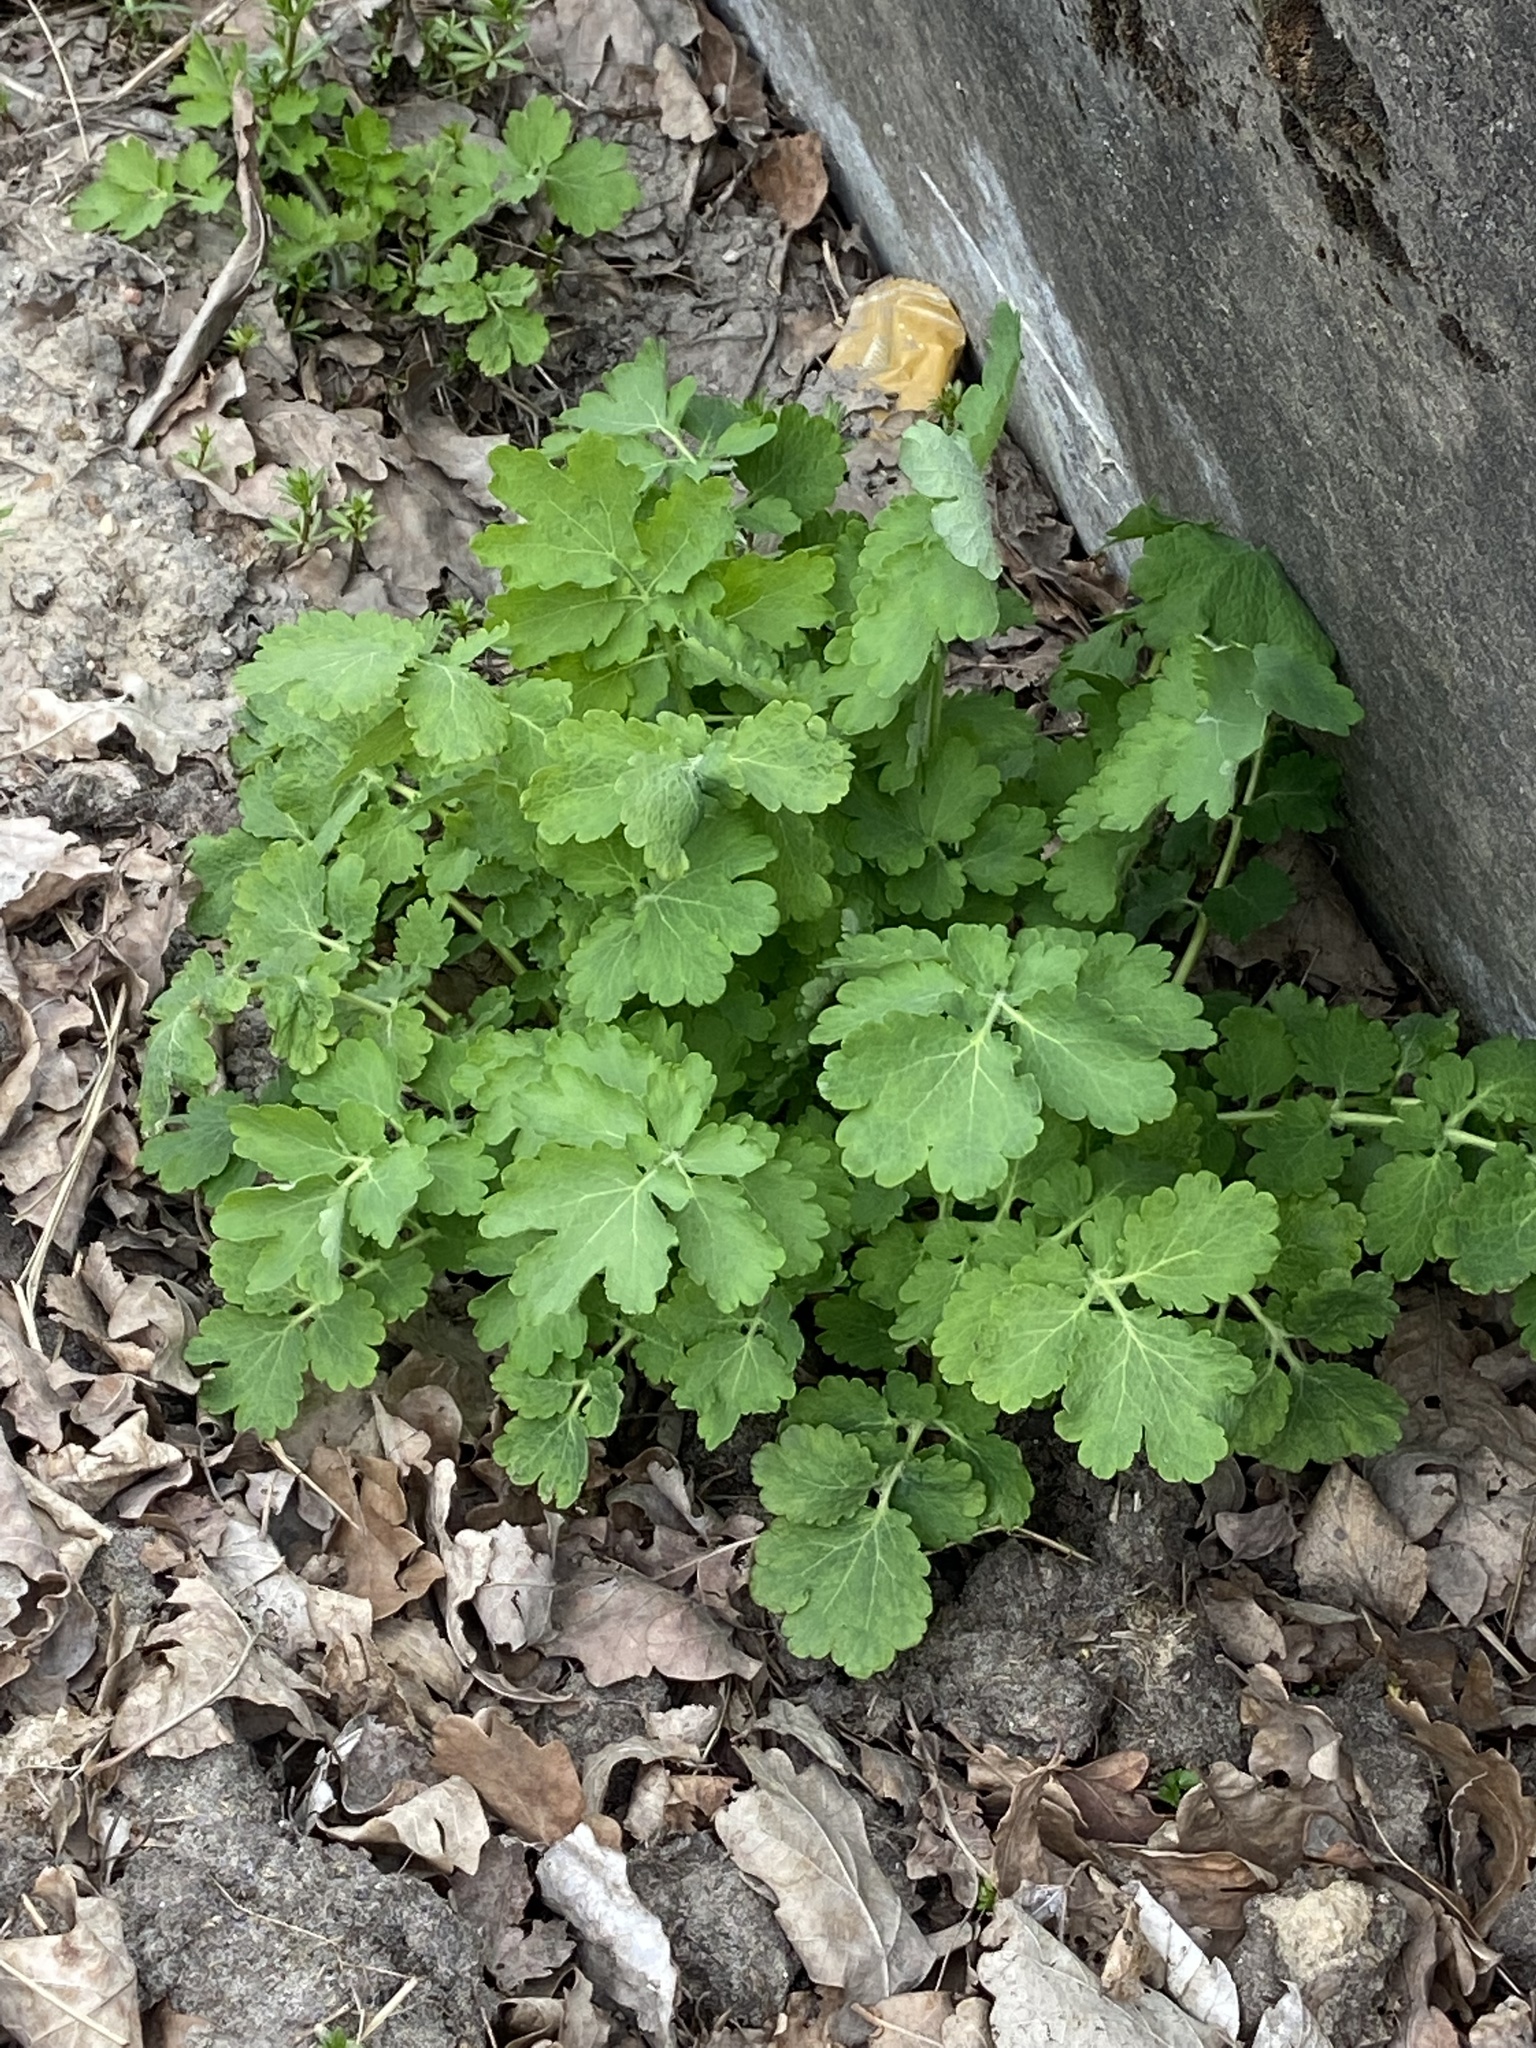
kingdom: Plantae
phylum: Tracheophyta
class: Magnoliopsida
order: Ranunculales
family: Papaveraceae
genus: Chelidonium
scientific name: Chelidonium majus
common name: Greater celandine
